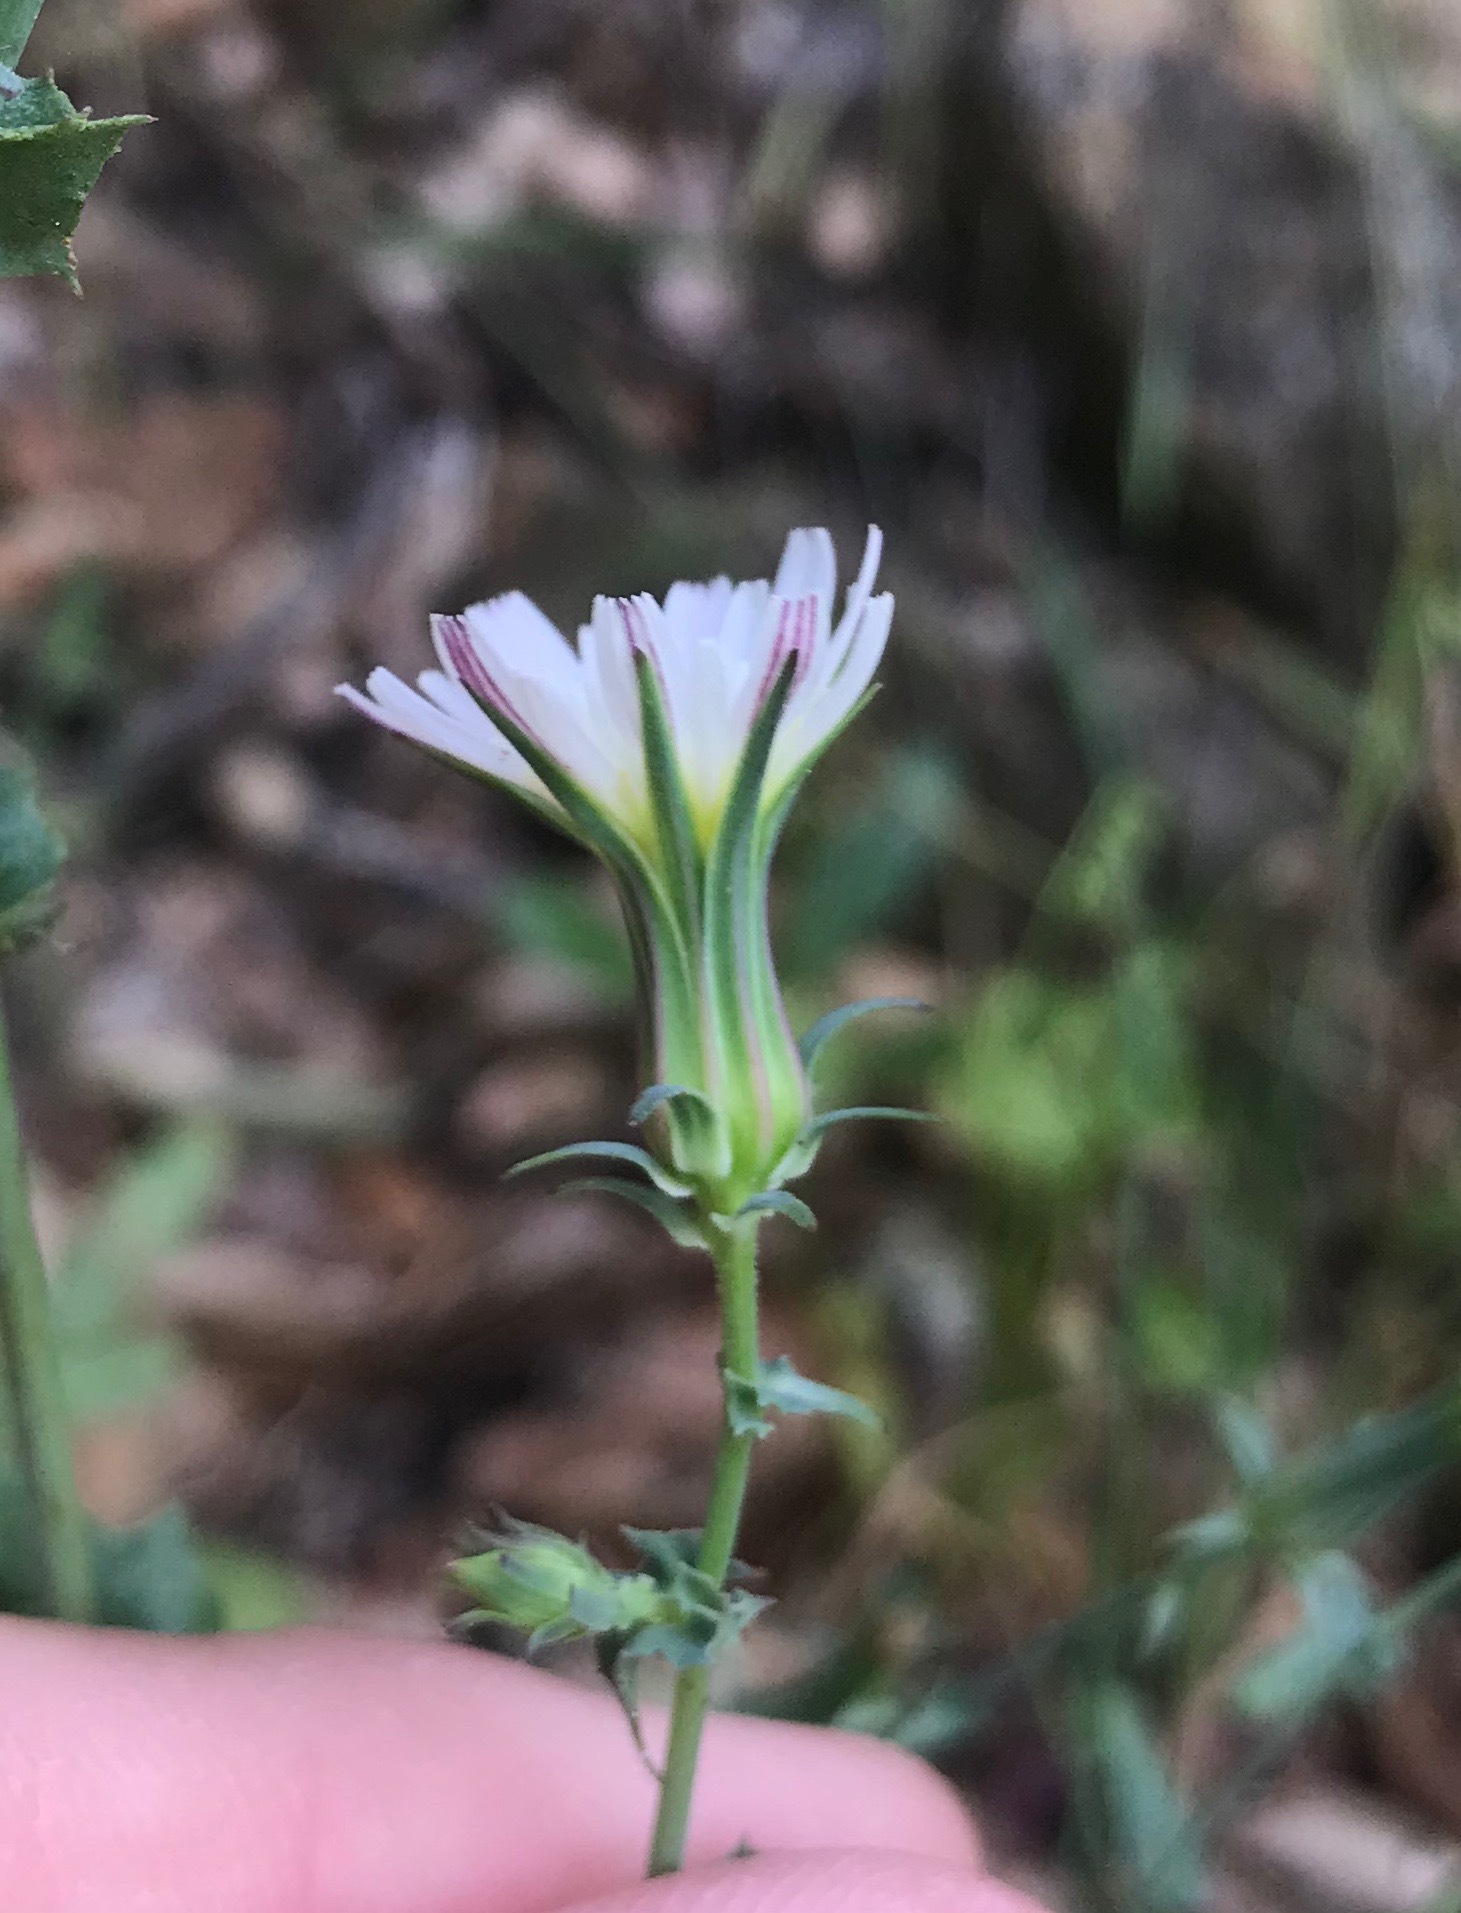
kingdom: Plantae
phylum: Tracheophyta
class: Magnoliopsida
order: Asterales
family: Asteraceae
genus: Rafinesquia
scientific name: Rafinesquia californica
